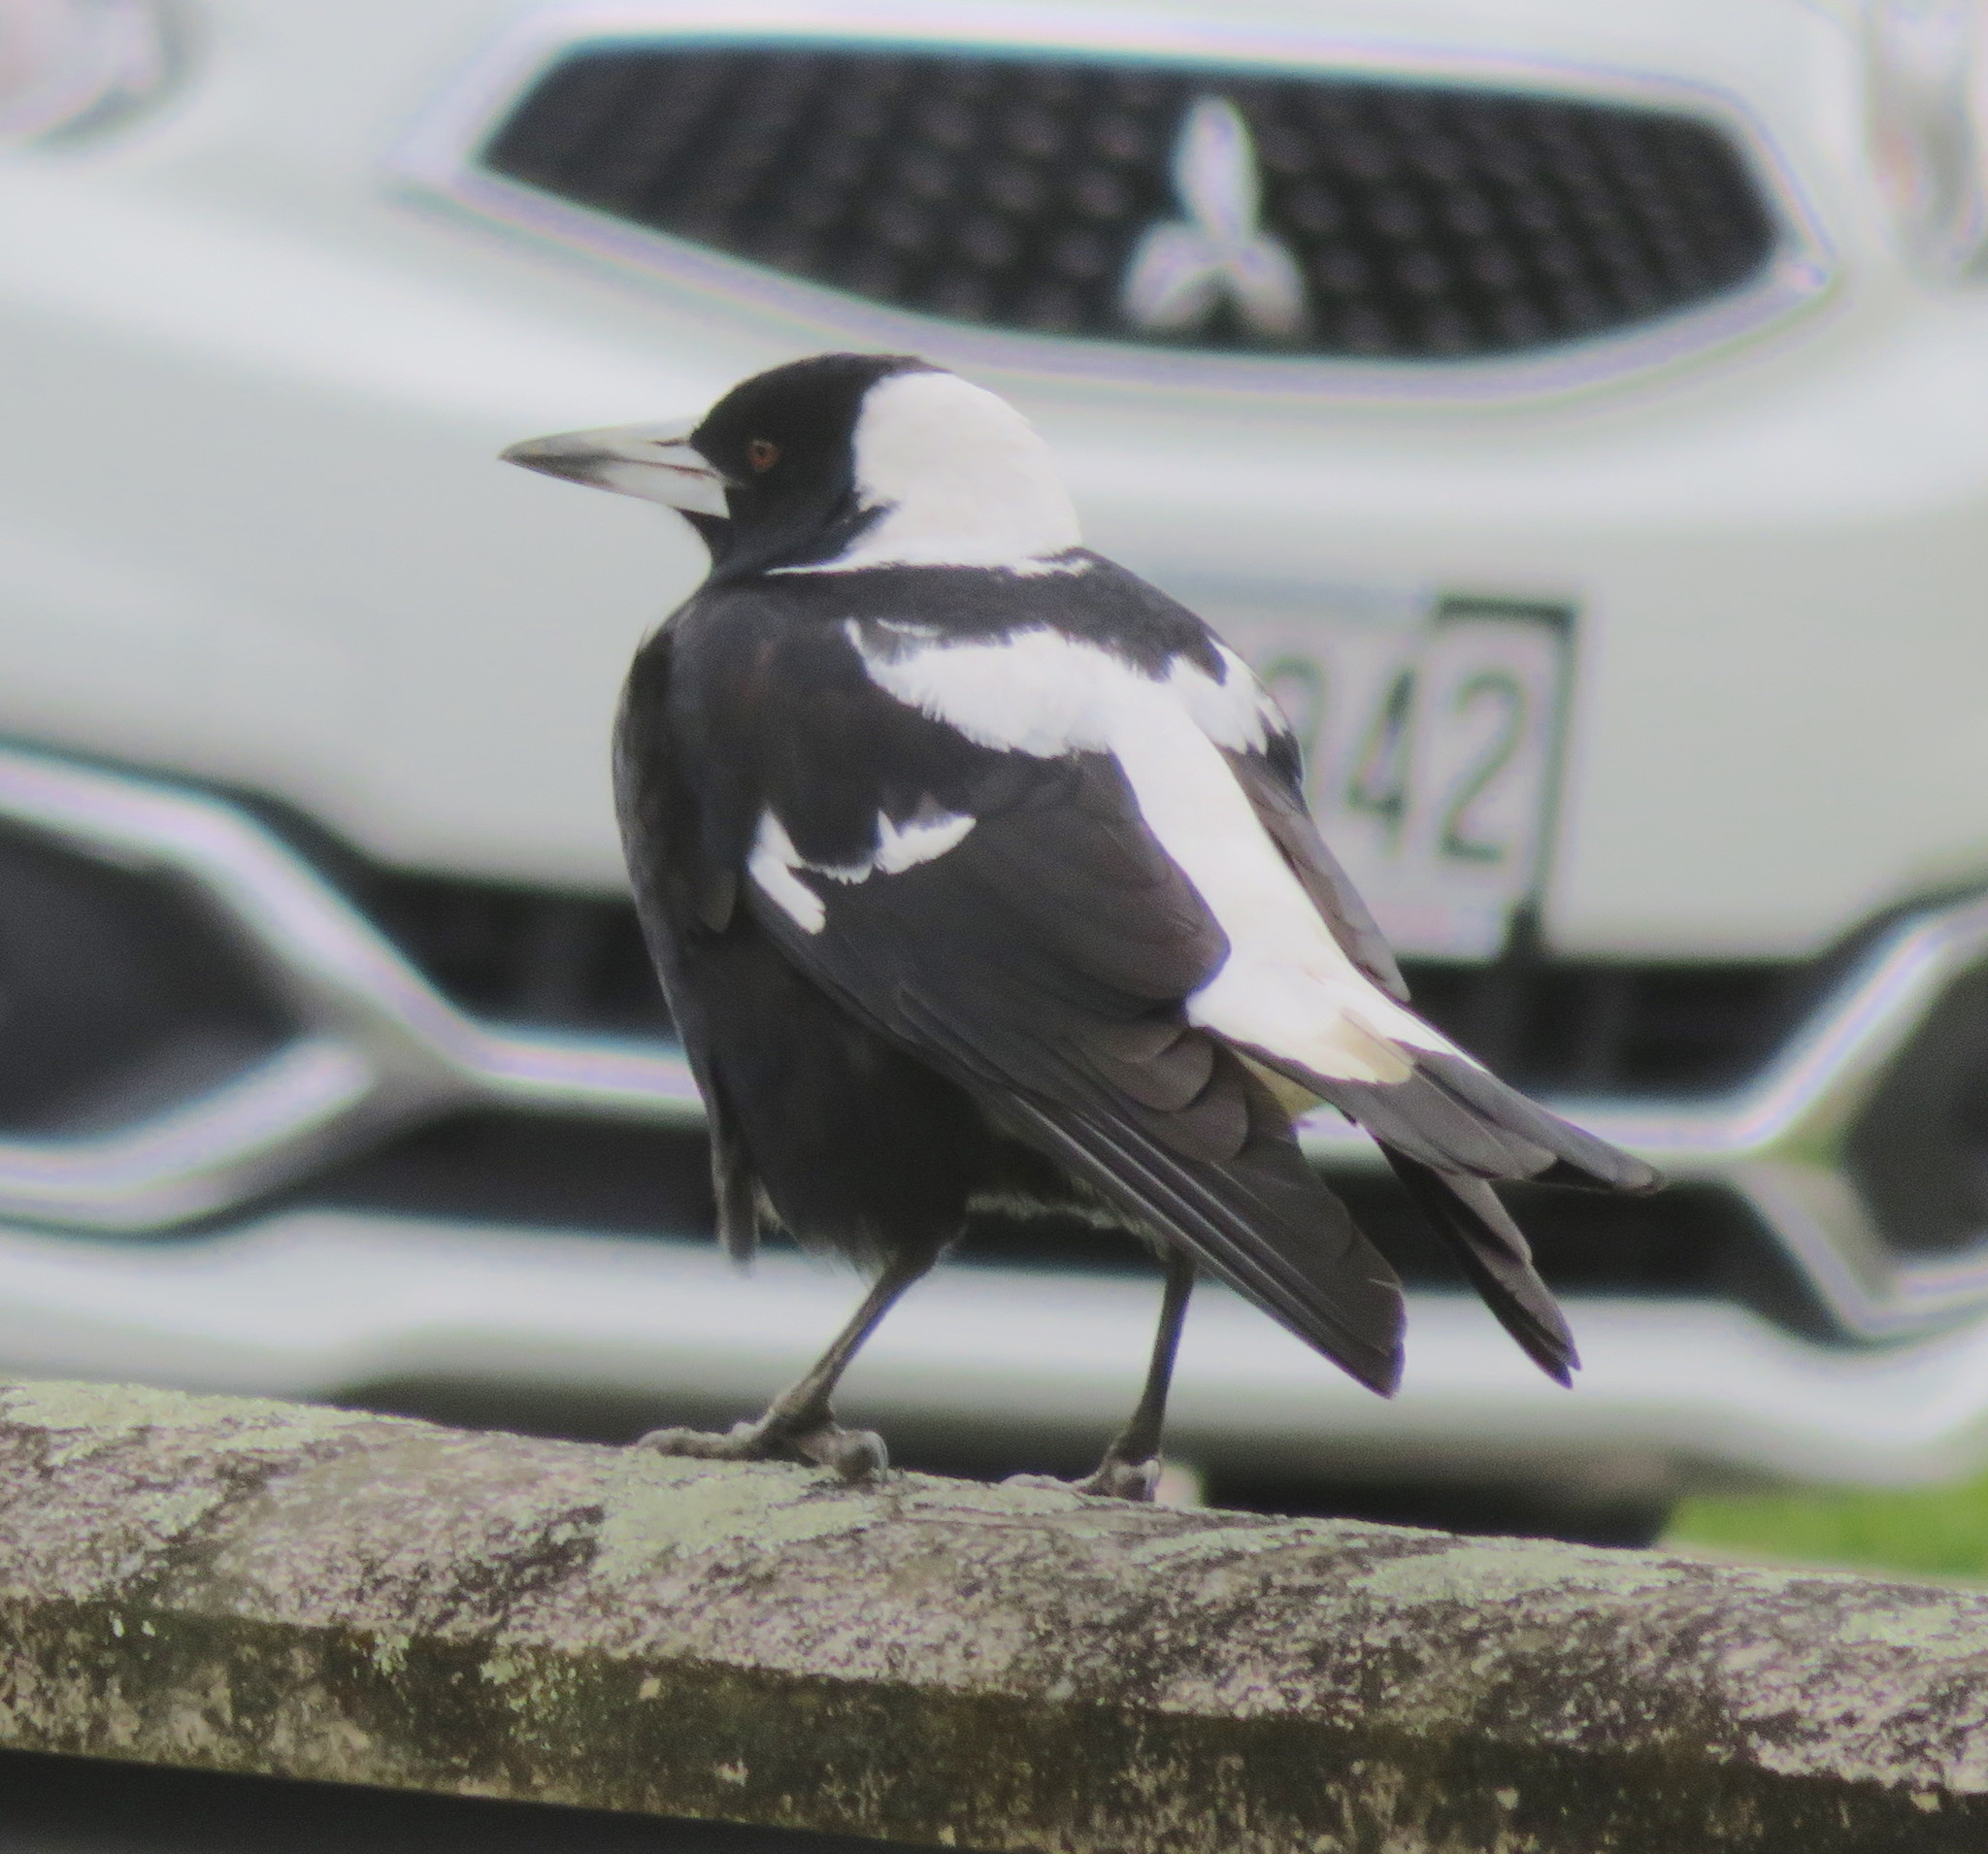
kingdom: Animalia
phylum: Chordata
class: Aves
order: Passeriformes
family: Cracticidae
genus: Gymnorhina
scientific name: Gymnorhina tibicen
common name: Australian magpie
